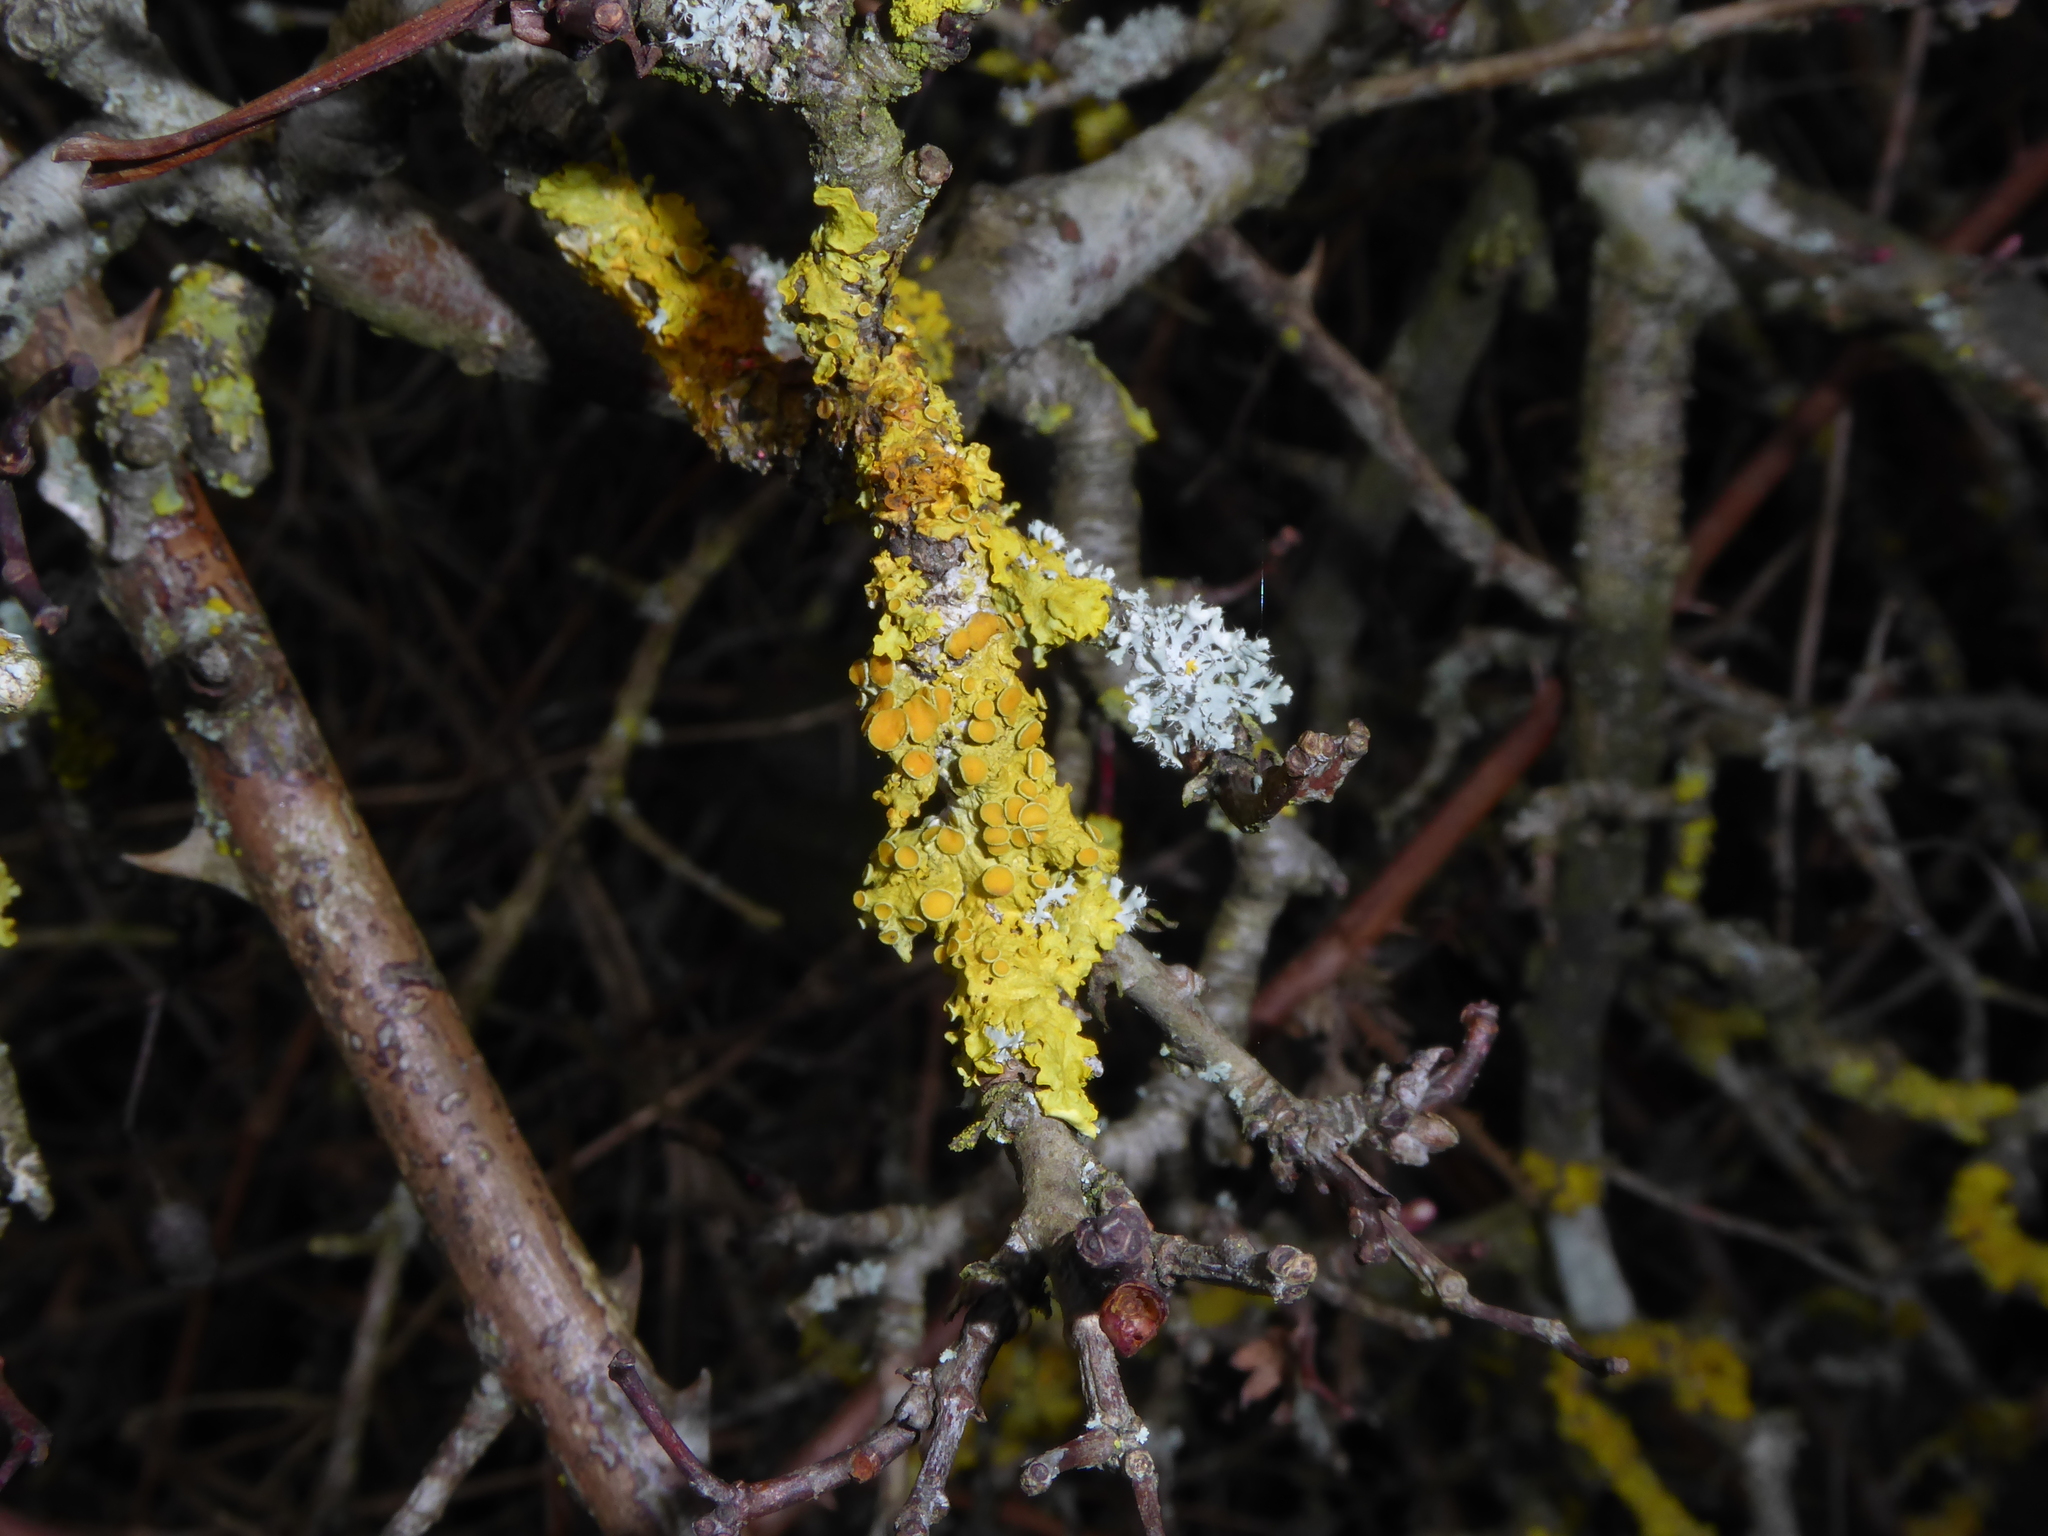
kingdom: Fungi
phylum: Ascomycota
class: Lecanoromycetes
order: Teloschistales
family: Teloschistaceae
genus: Xanthoria
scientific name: Xanthoria parietina
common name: Common orange lichen
